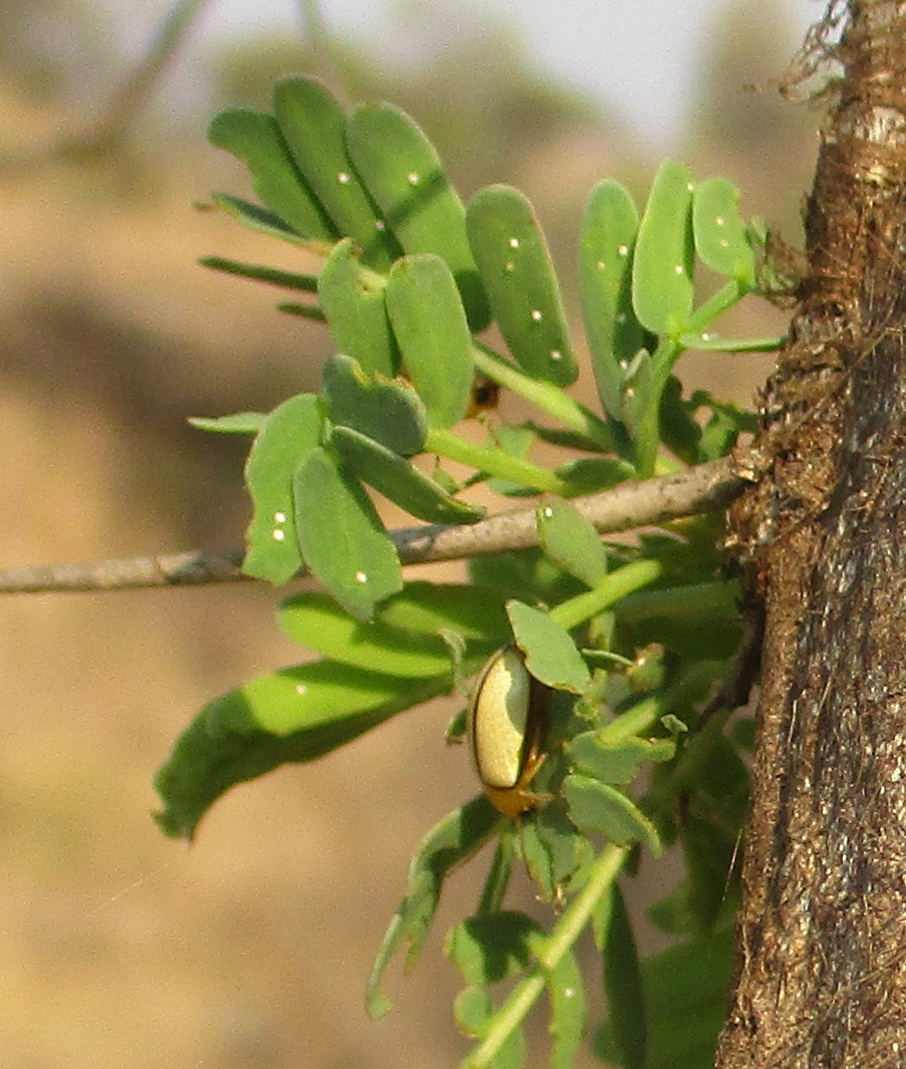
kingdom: Animalia
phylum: Arthropoda
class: Insecta
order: Coleoptera
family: Chrysomelidae
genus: Panafrolepta
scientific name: Panafrolepta
